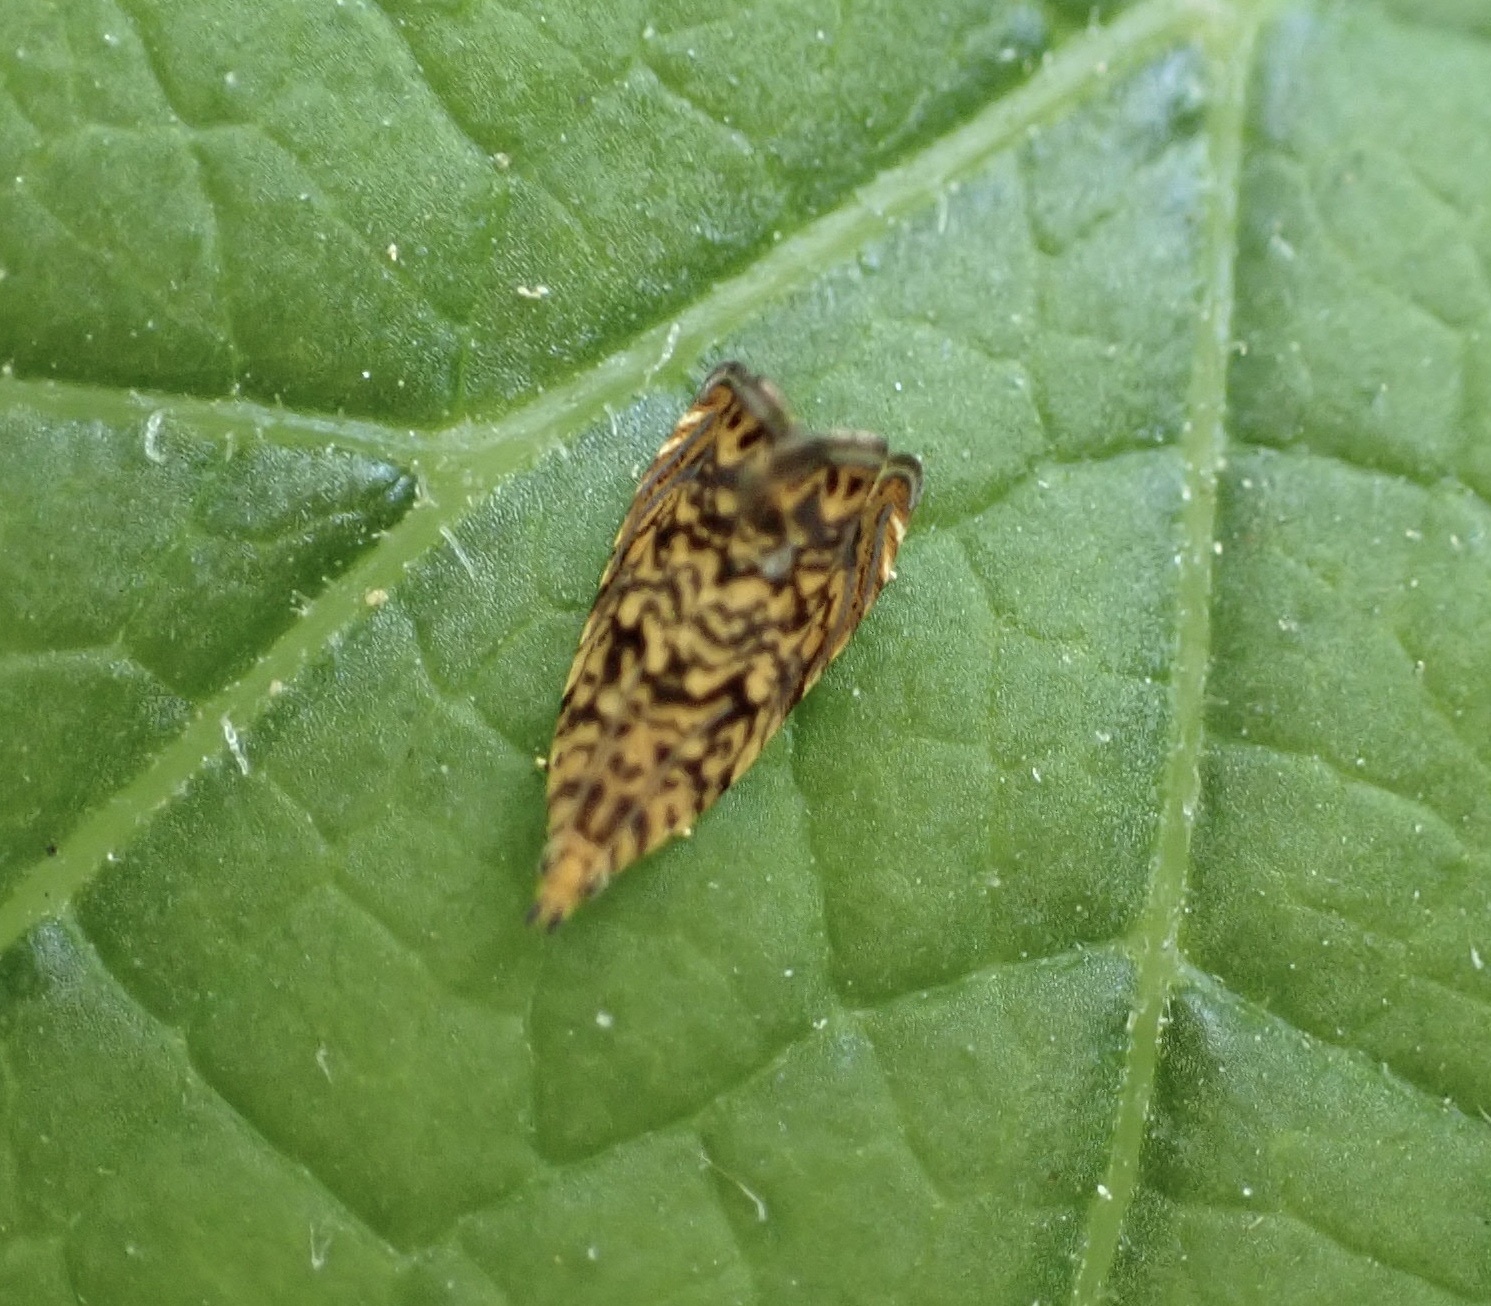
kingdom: Animalia
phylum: Arthropoda
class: Insecta
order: Lepidoptera
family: Tortricidae
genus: Dichrorampha
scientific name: Dichrorampha leopardana
